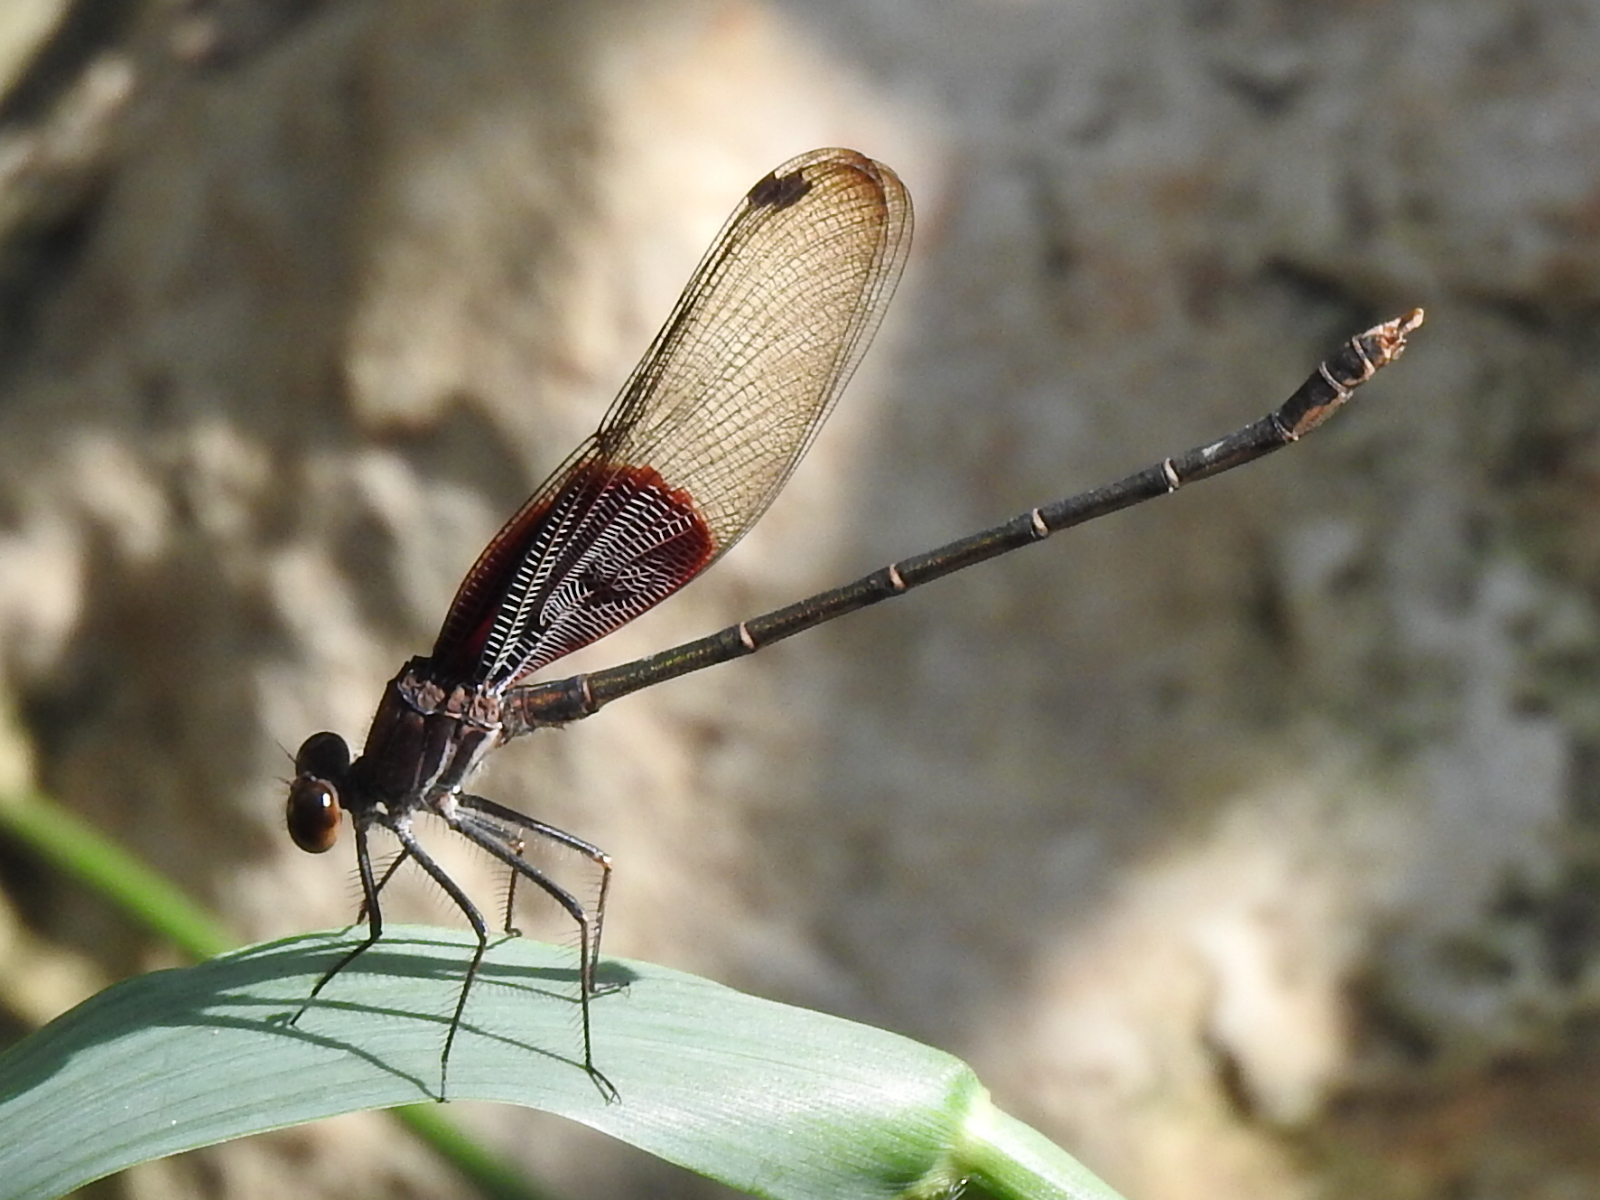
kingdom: Animalia
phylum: Arthropoda
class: Insecta
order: Odonata
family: Calopterygidae
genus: Hetaerina
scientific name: Hetaerina americana
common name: American rubyspot
